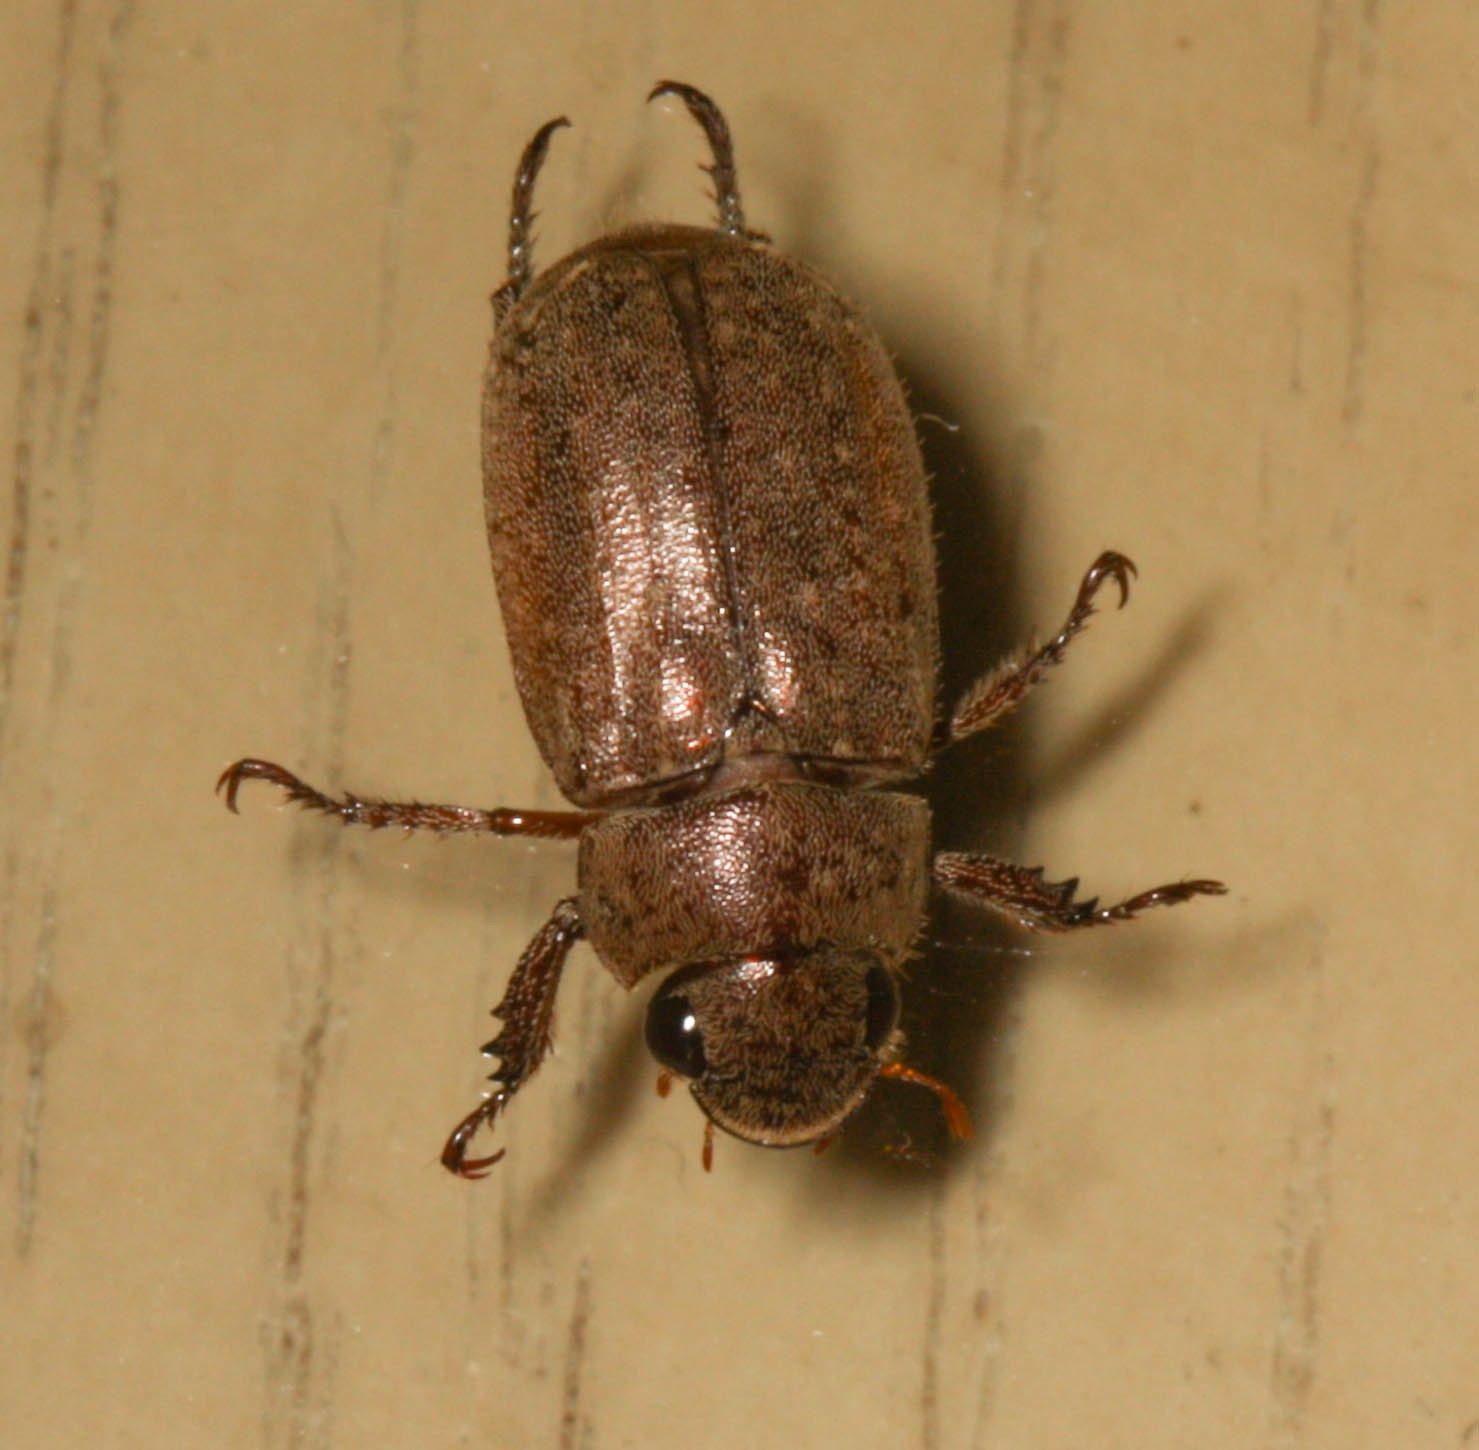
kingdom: Animalia
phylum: Arthropoda
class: Insecta
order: Coleoptera
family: Scarabaeidae
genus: Adoretus
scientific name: Adoretus sinicus
